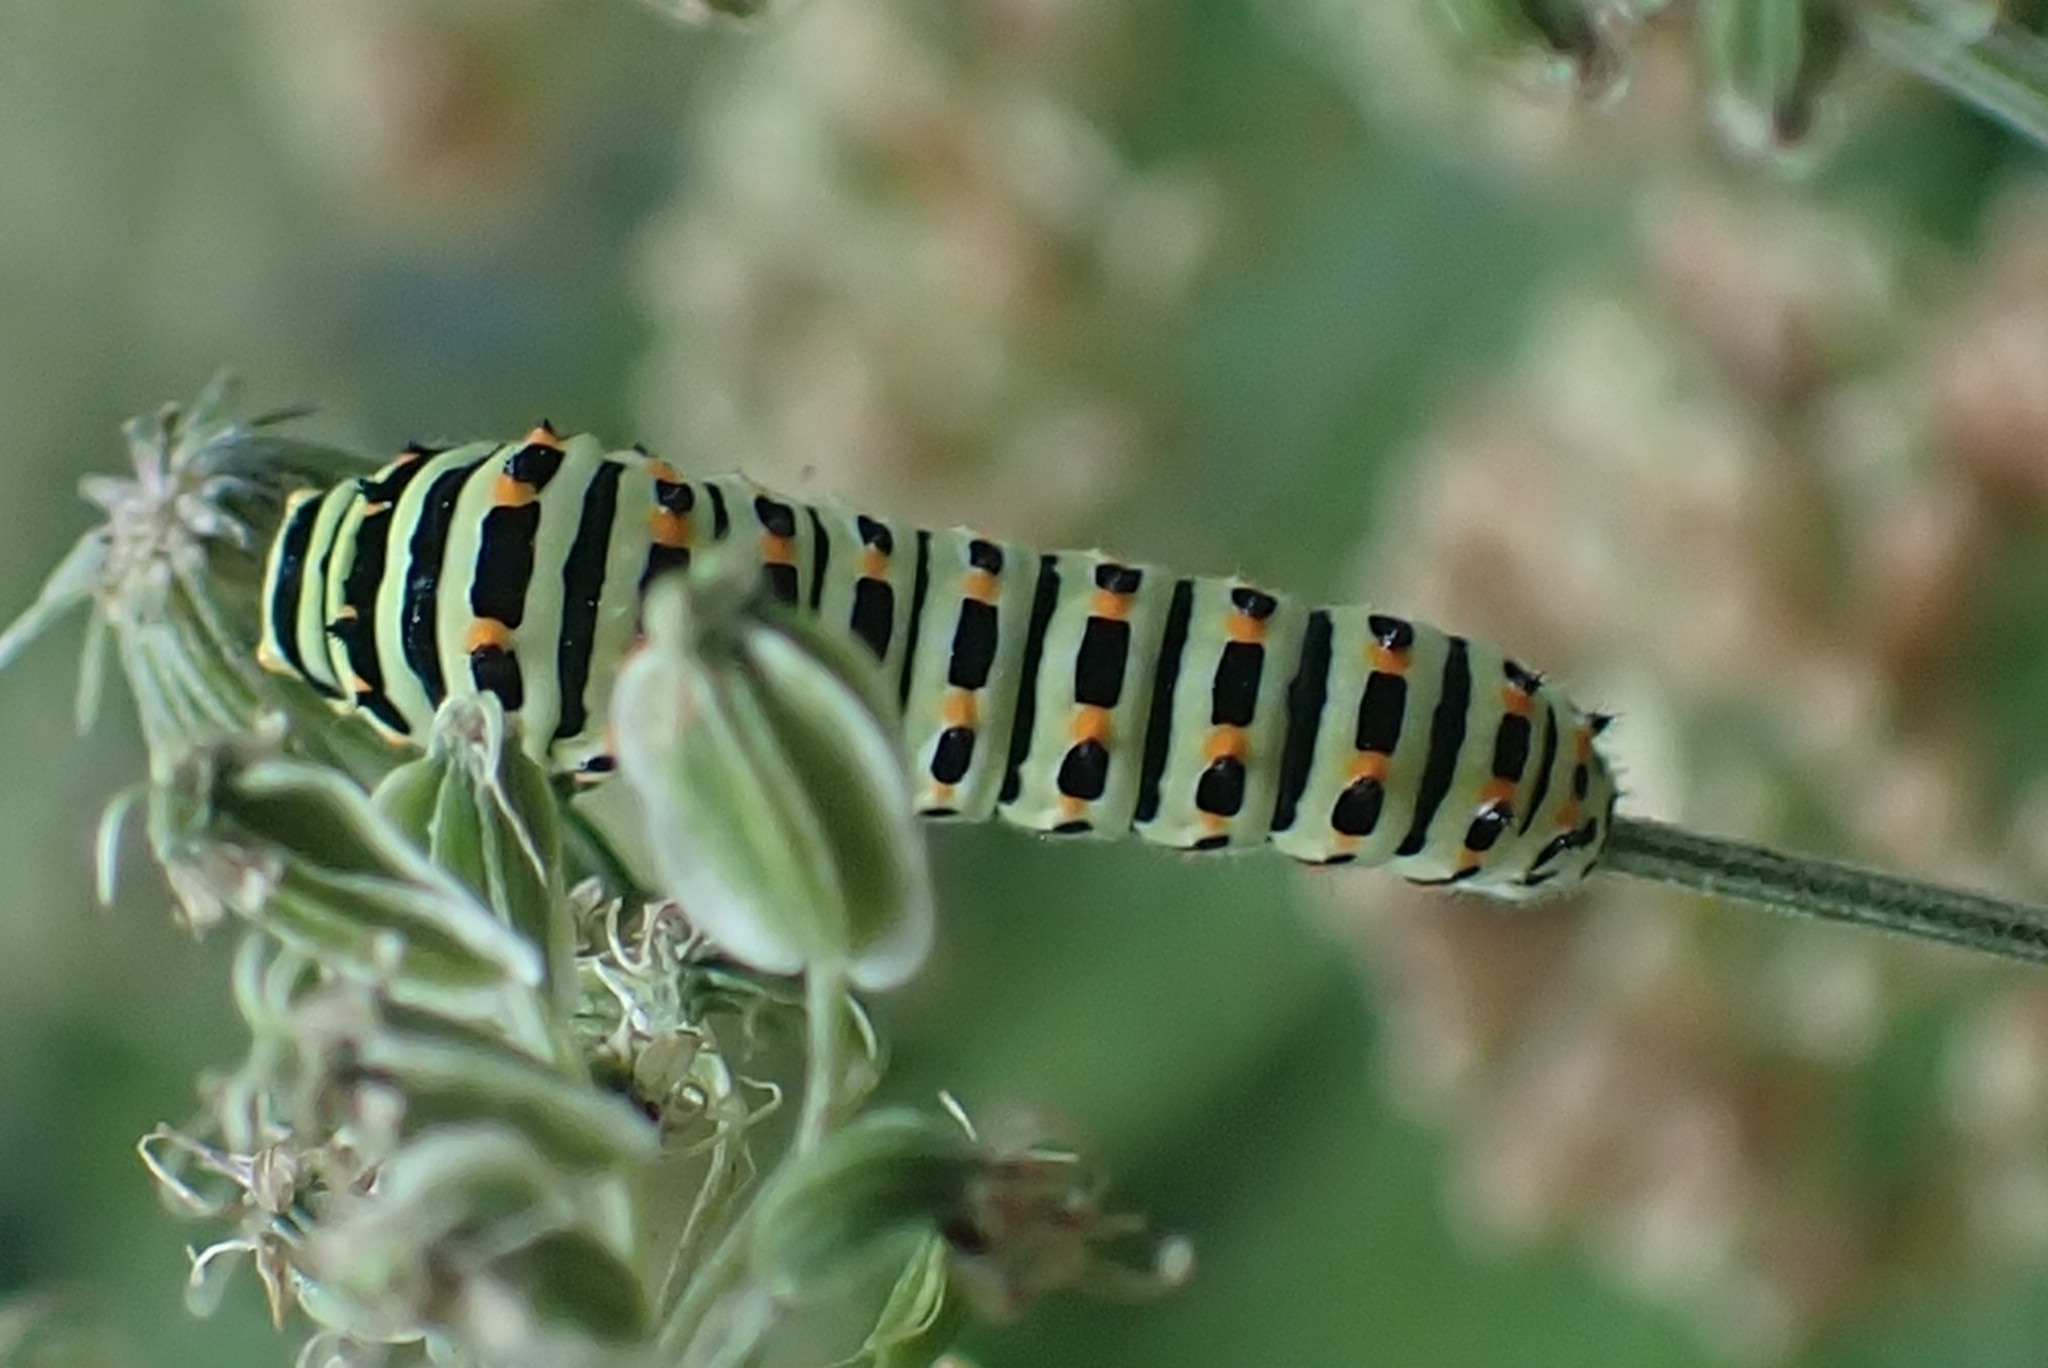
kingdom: Animalia
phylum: Arthropoda
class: Insecta
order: Lepidoptera
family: Papilionidae
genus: Papilio
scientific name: Papilio machaon
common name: Swallowtail
